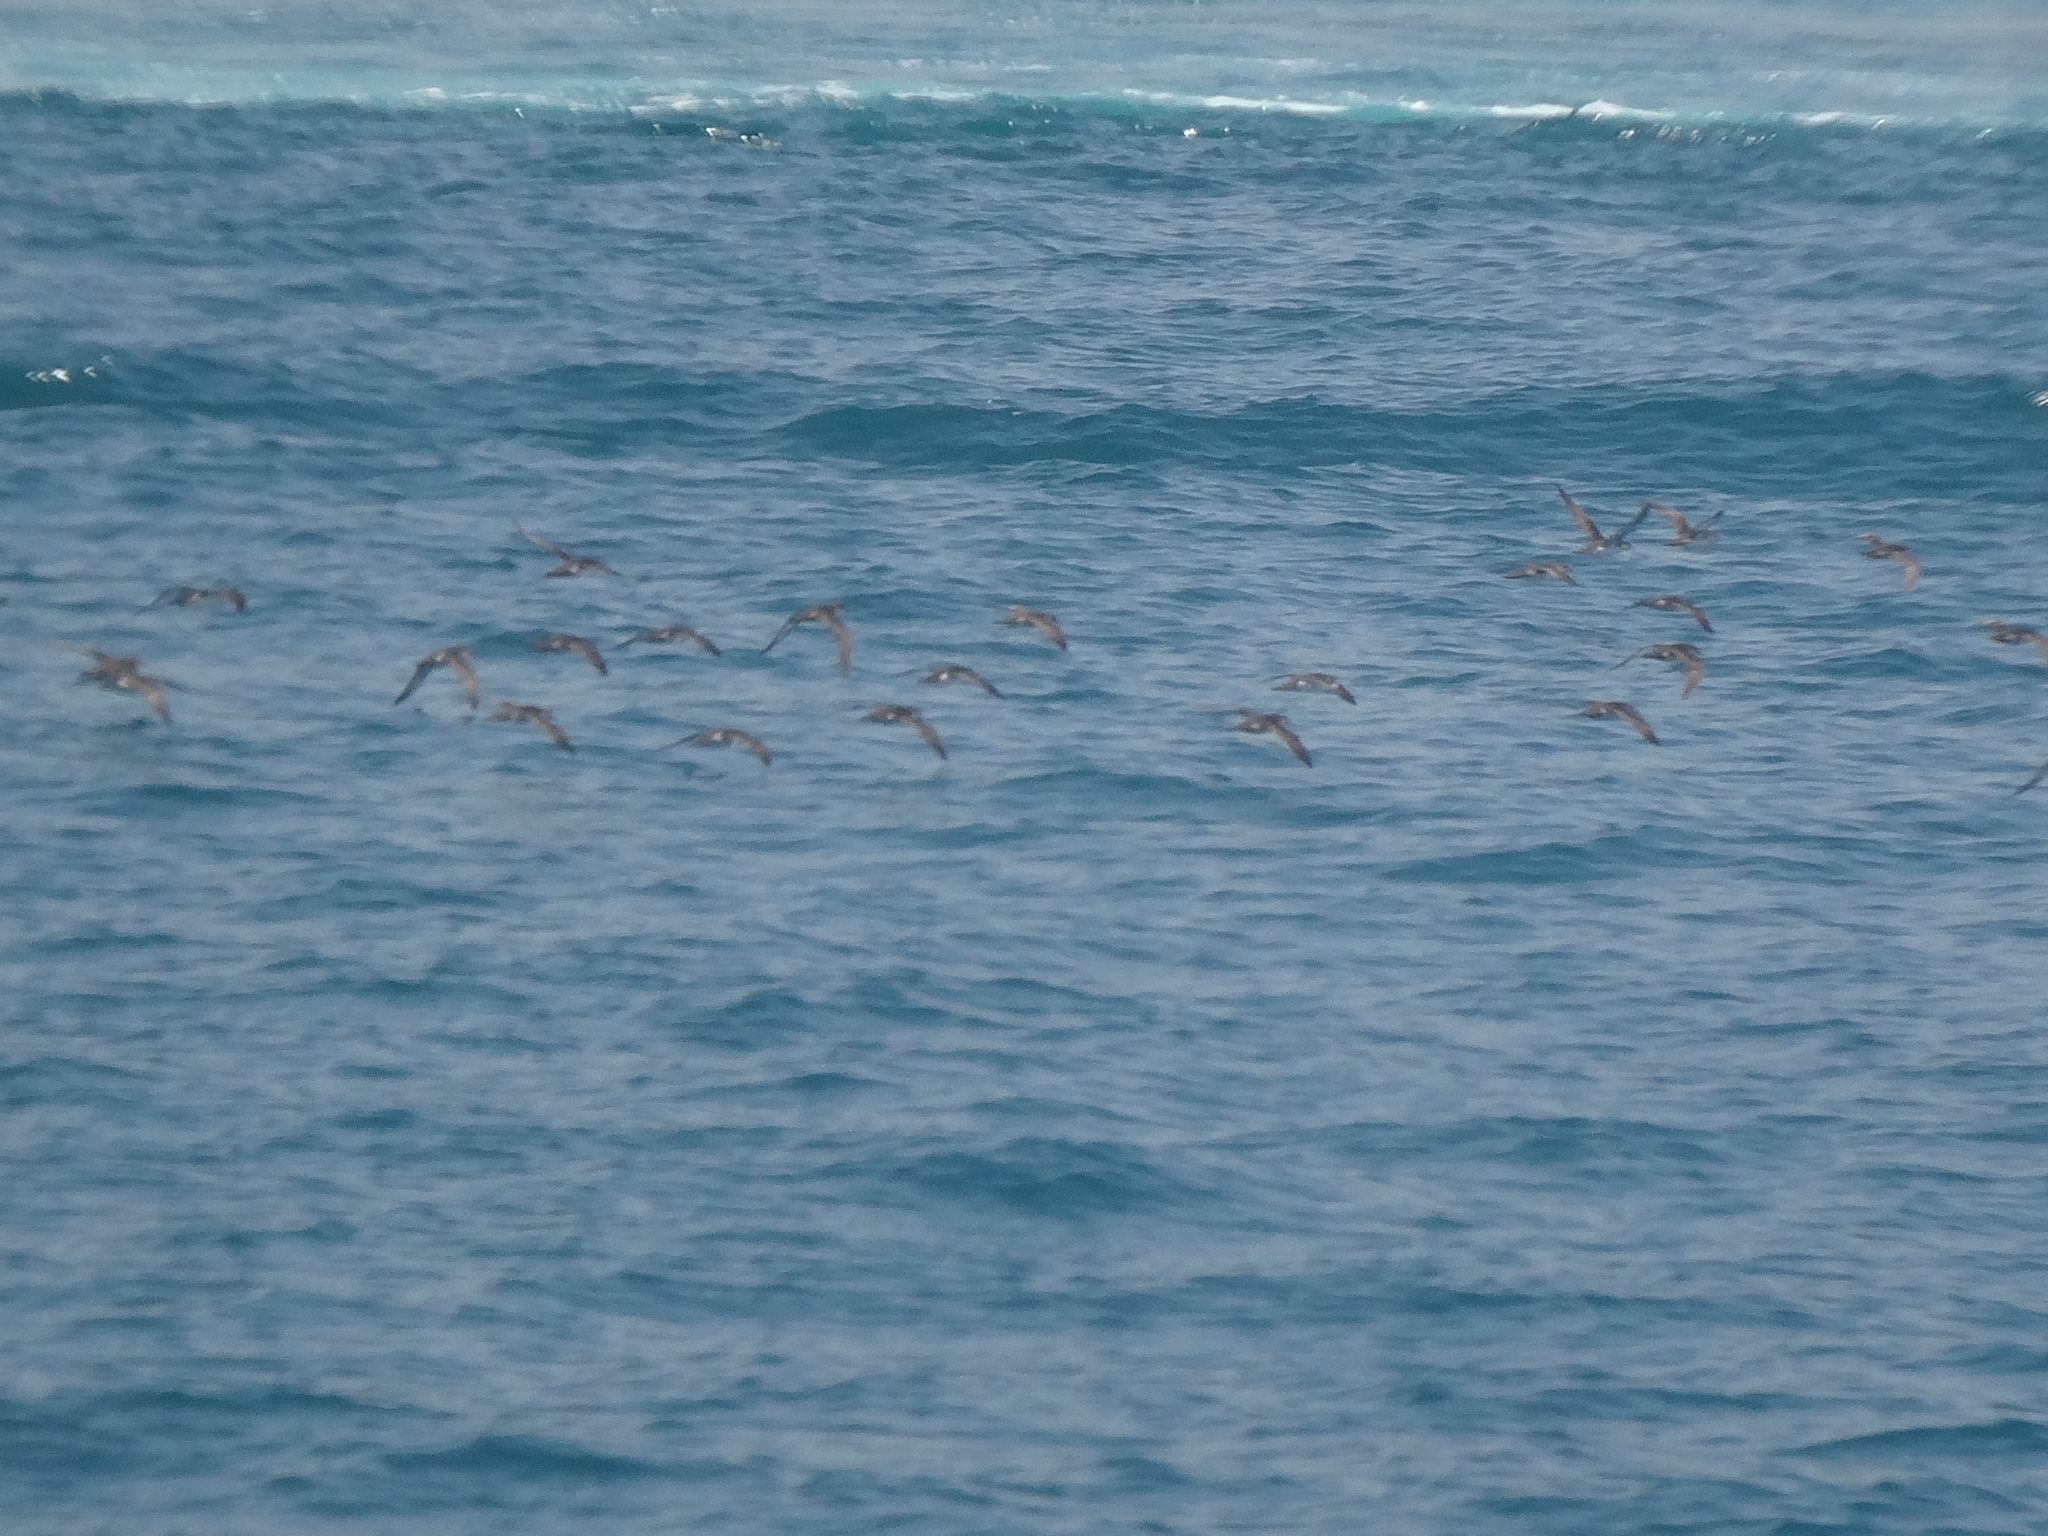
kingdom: Animalia
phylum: Chordata
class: Aves
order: Procellariiformes
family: Procellariidae
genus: Puffinus
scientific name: Puffinus yelkouan
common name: Yelkouan shearwater
